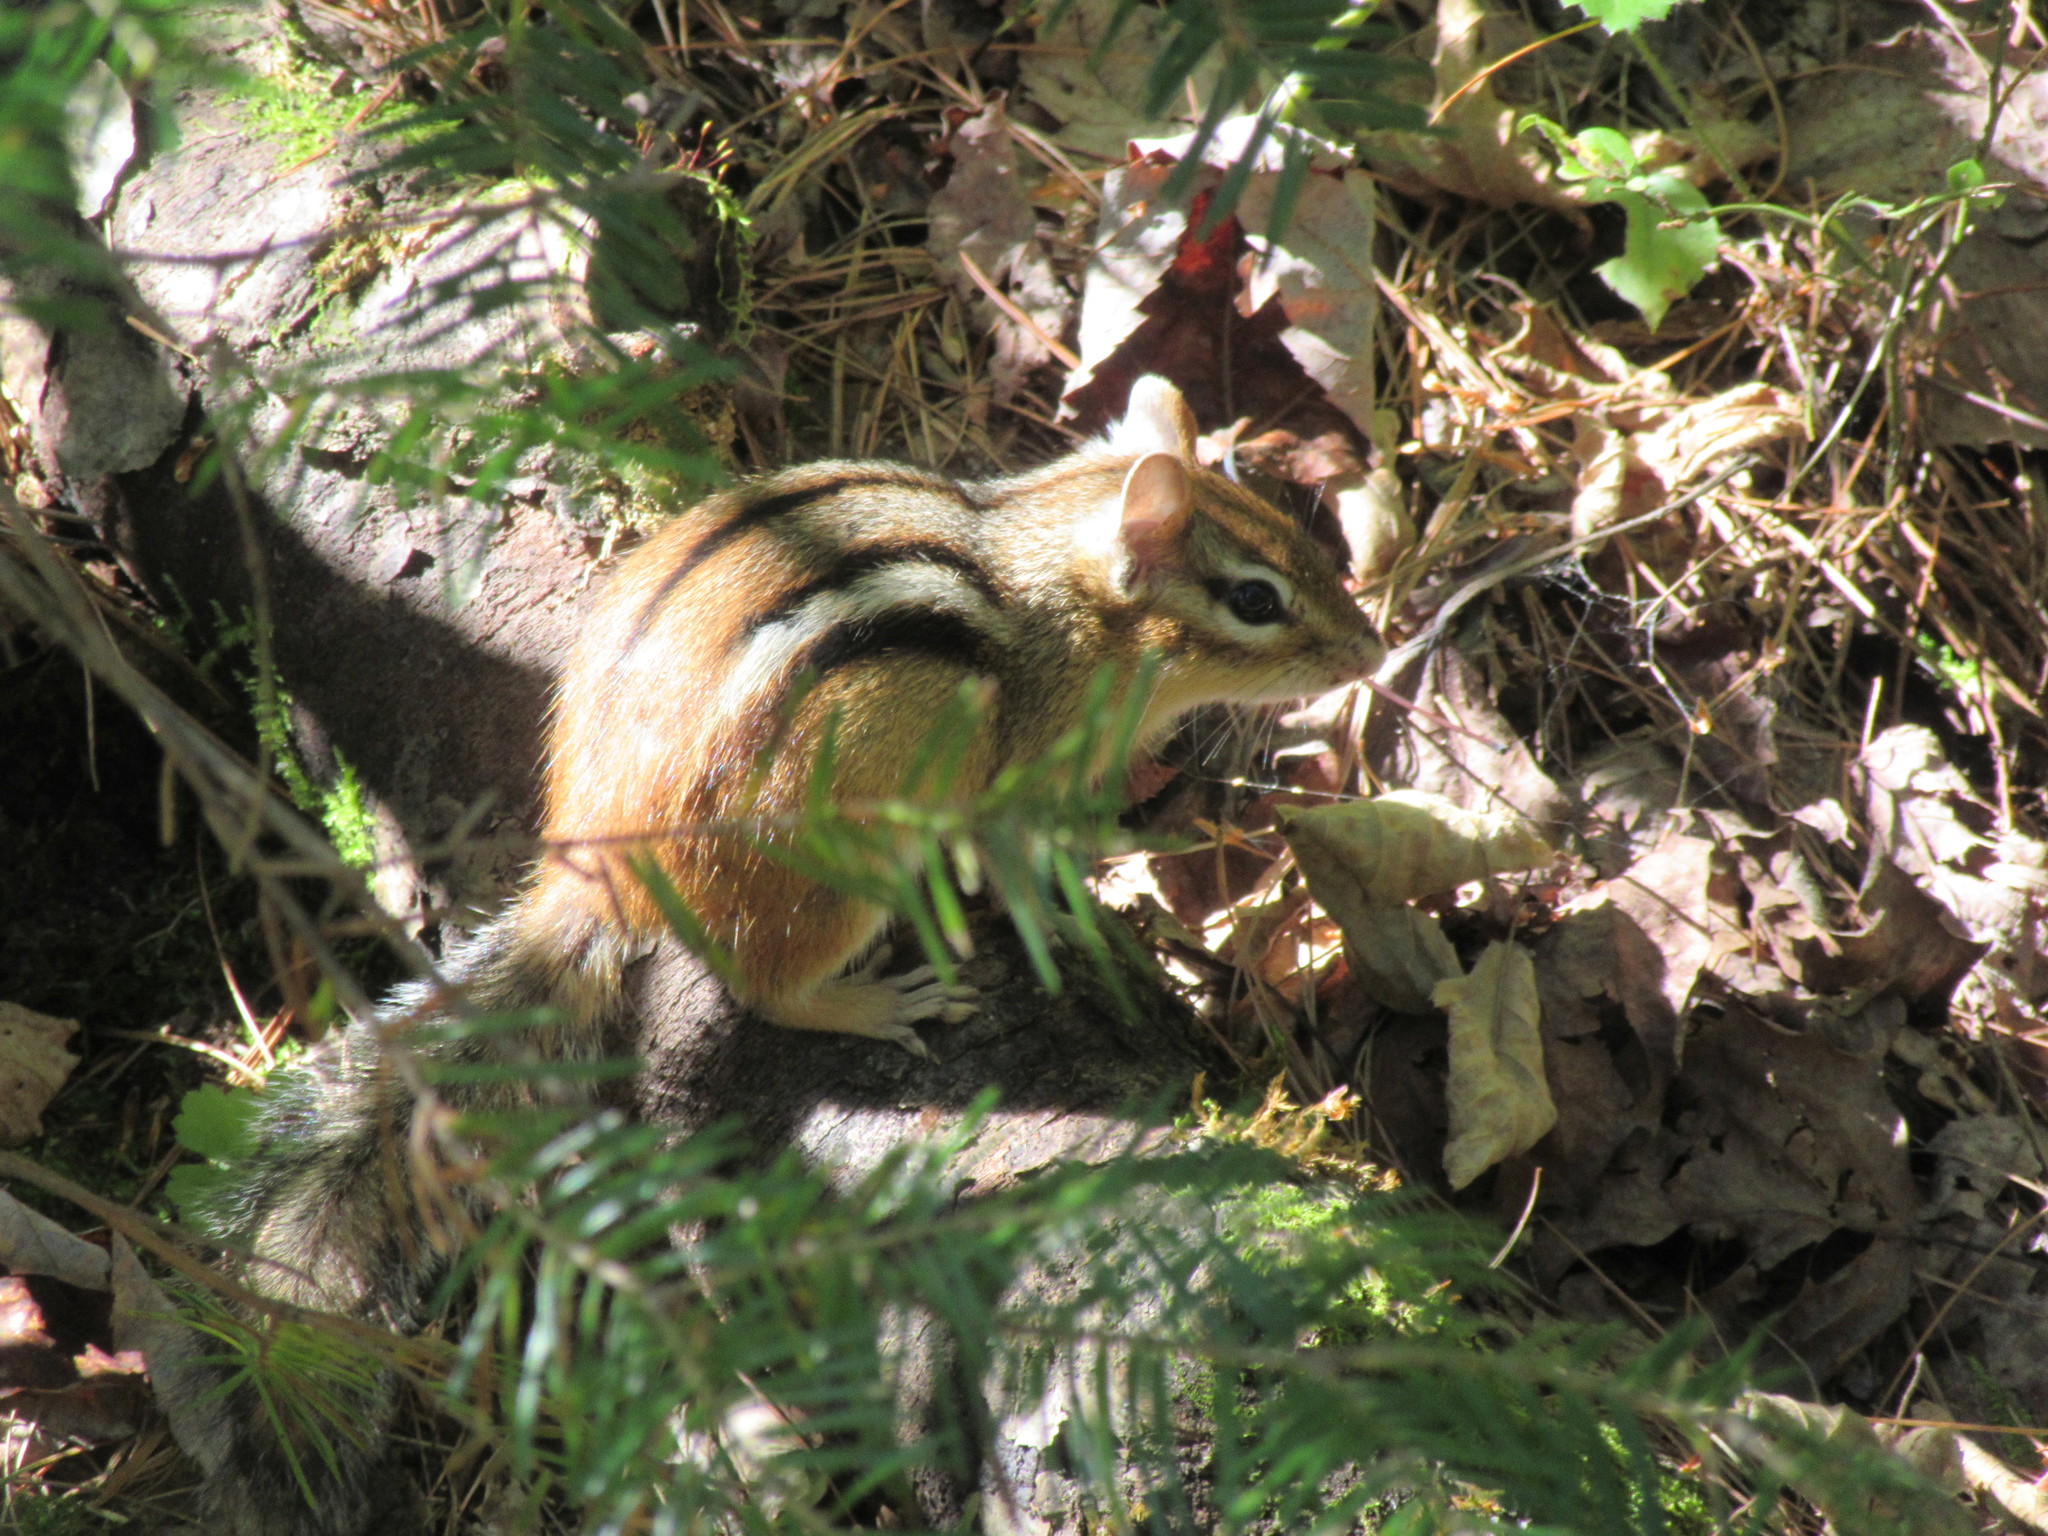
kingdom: Animalia
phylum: Chordata
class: Mammalia
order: Rodentia
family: Sciuridae
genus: Tamias
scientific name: Tamias striatus
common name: Eastern chipmunk
